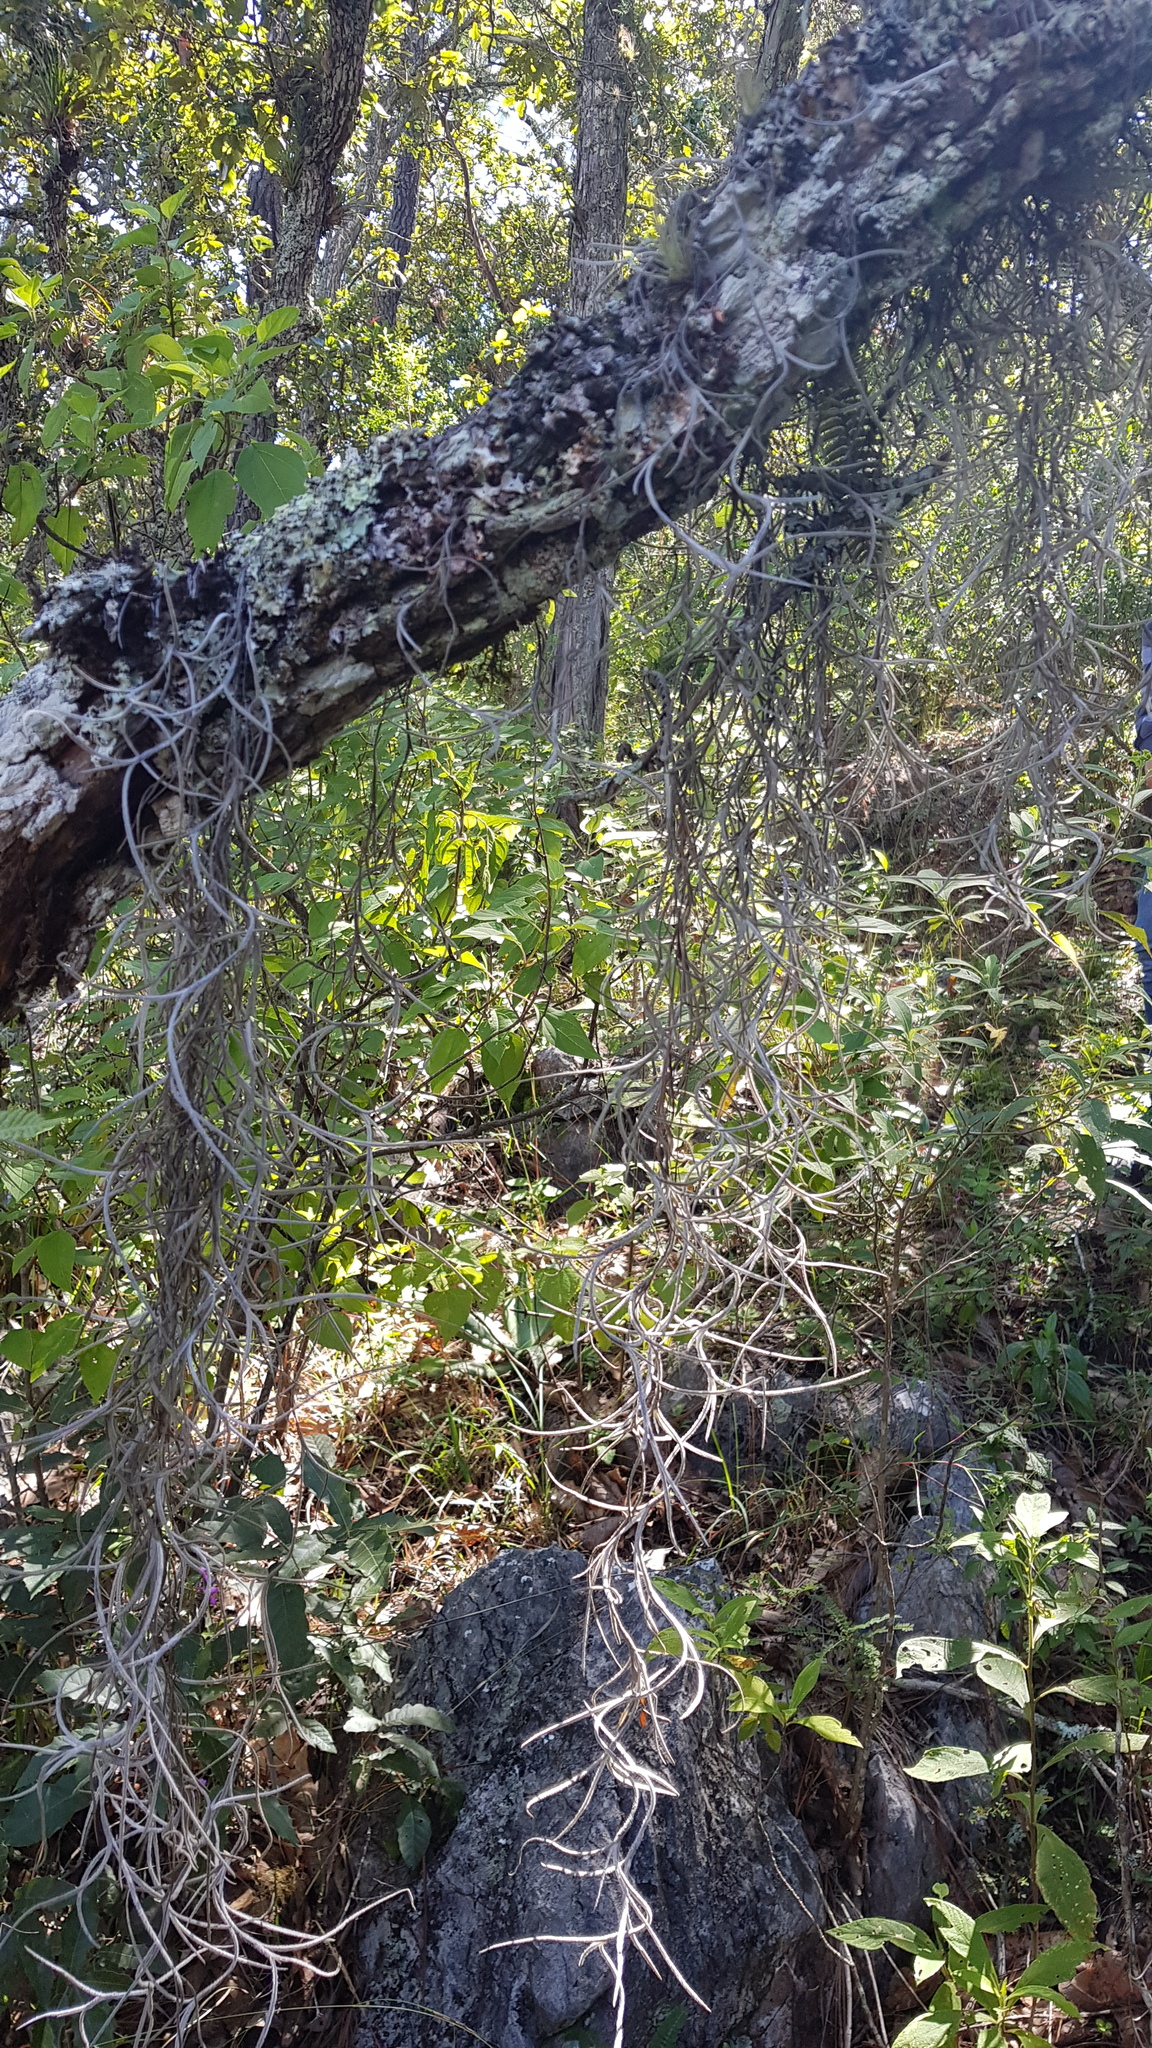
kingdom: Plantae
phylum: Tracheophyta
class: Liliopsida
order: Poales
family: Bromeliaceae
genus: Tillandsia
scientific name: Tillandsia usneoides
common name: Spanish moss
